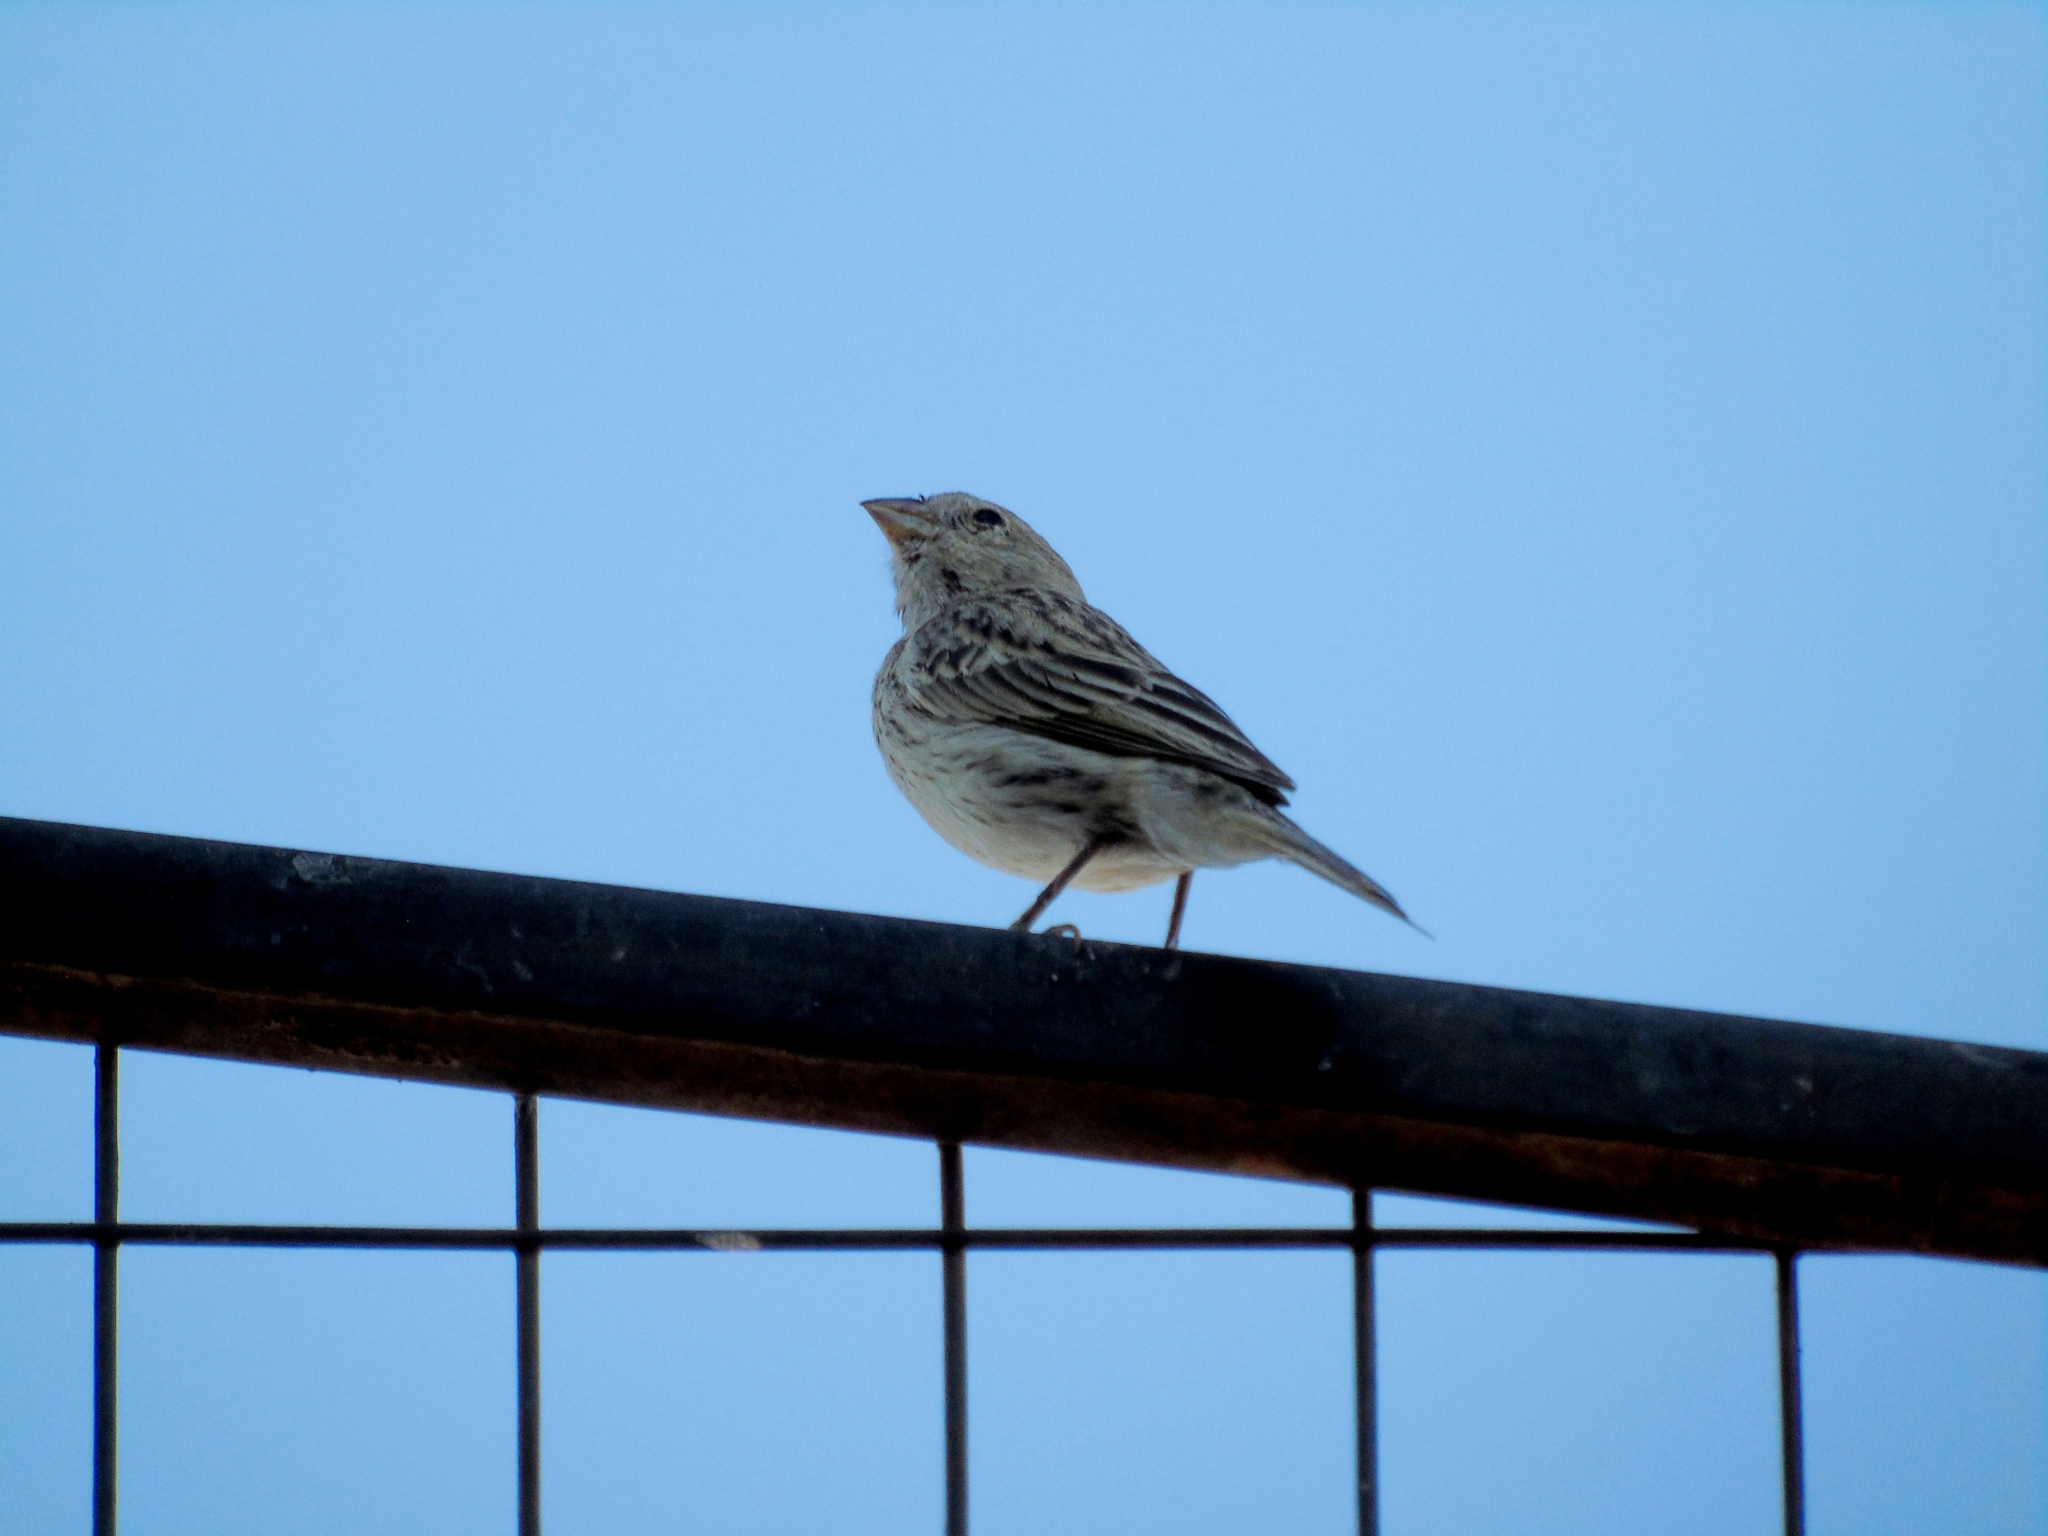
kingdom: Animalia
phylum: Chordata
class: Aves
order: Passeriformes
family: Thraupidae
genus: Sicalis
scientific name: Sicalis flaveola
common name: Saffron finch
